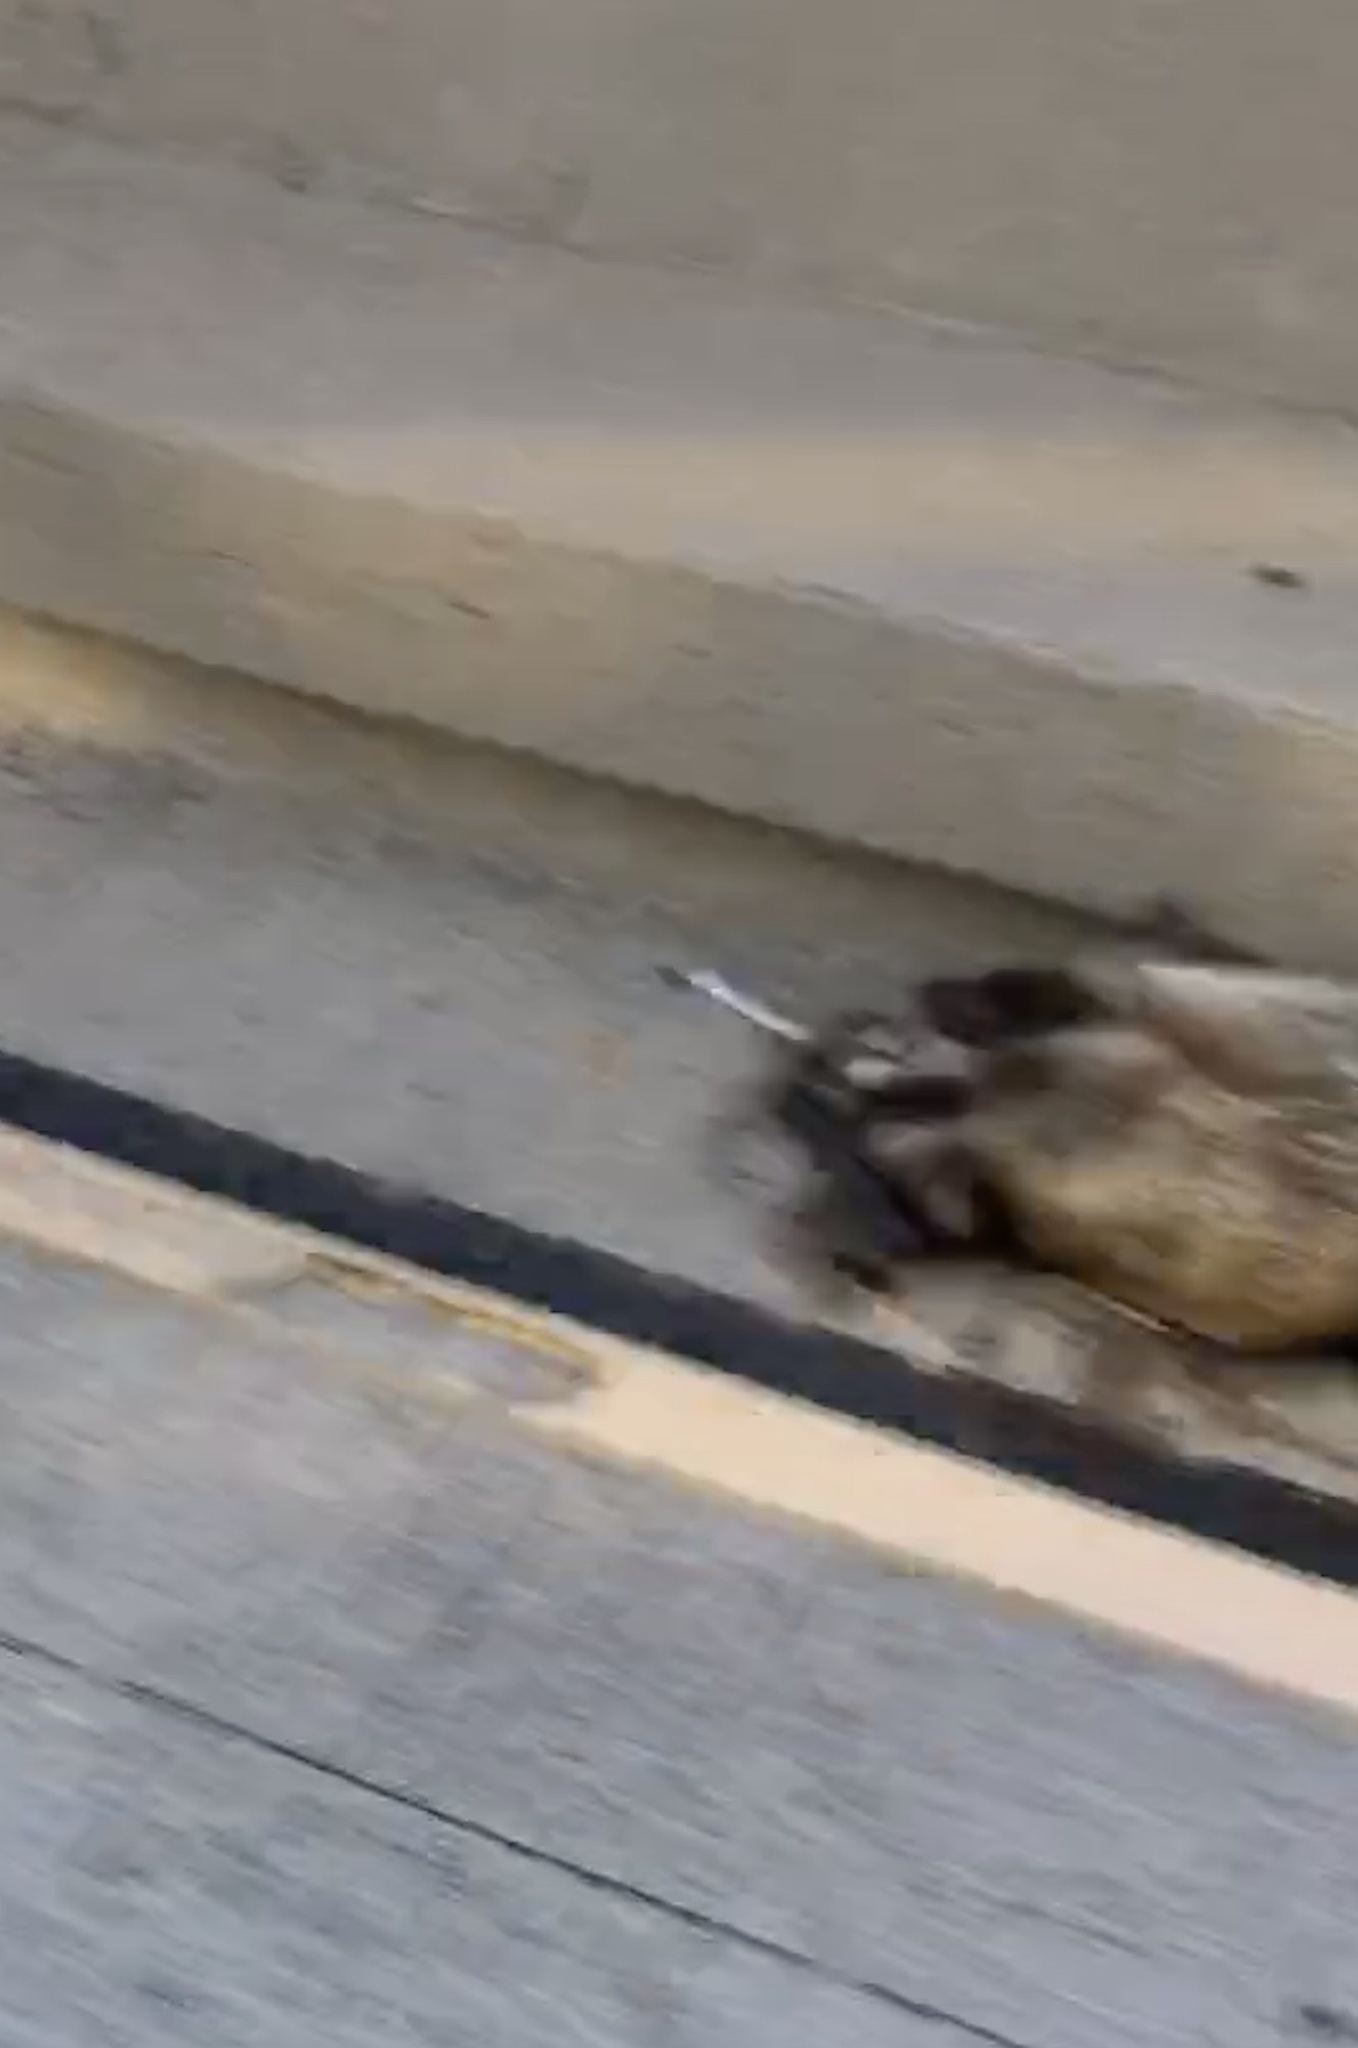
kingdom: Animalia
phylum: Chordata
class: Mammalia
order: Carnivora
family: Procyonidae
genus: Procyon
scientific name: Procyon lotor
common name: Raccoon
